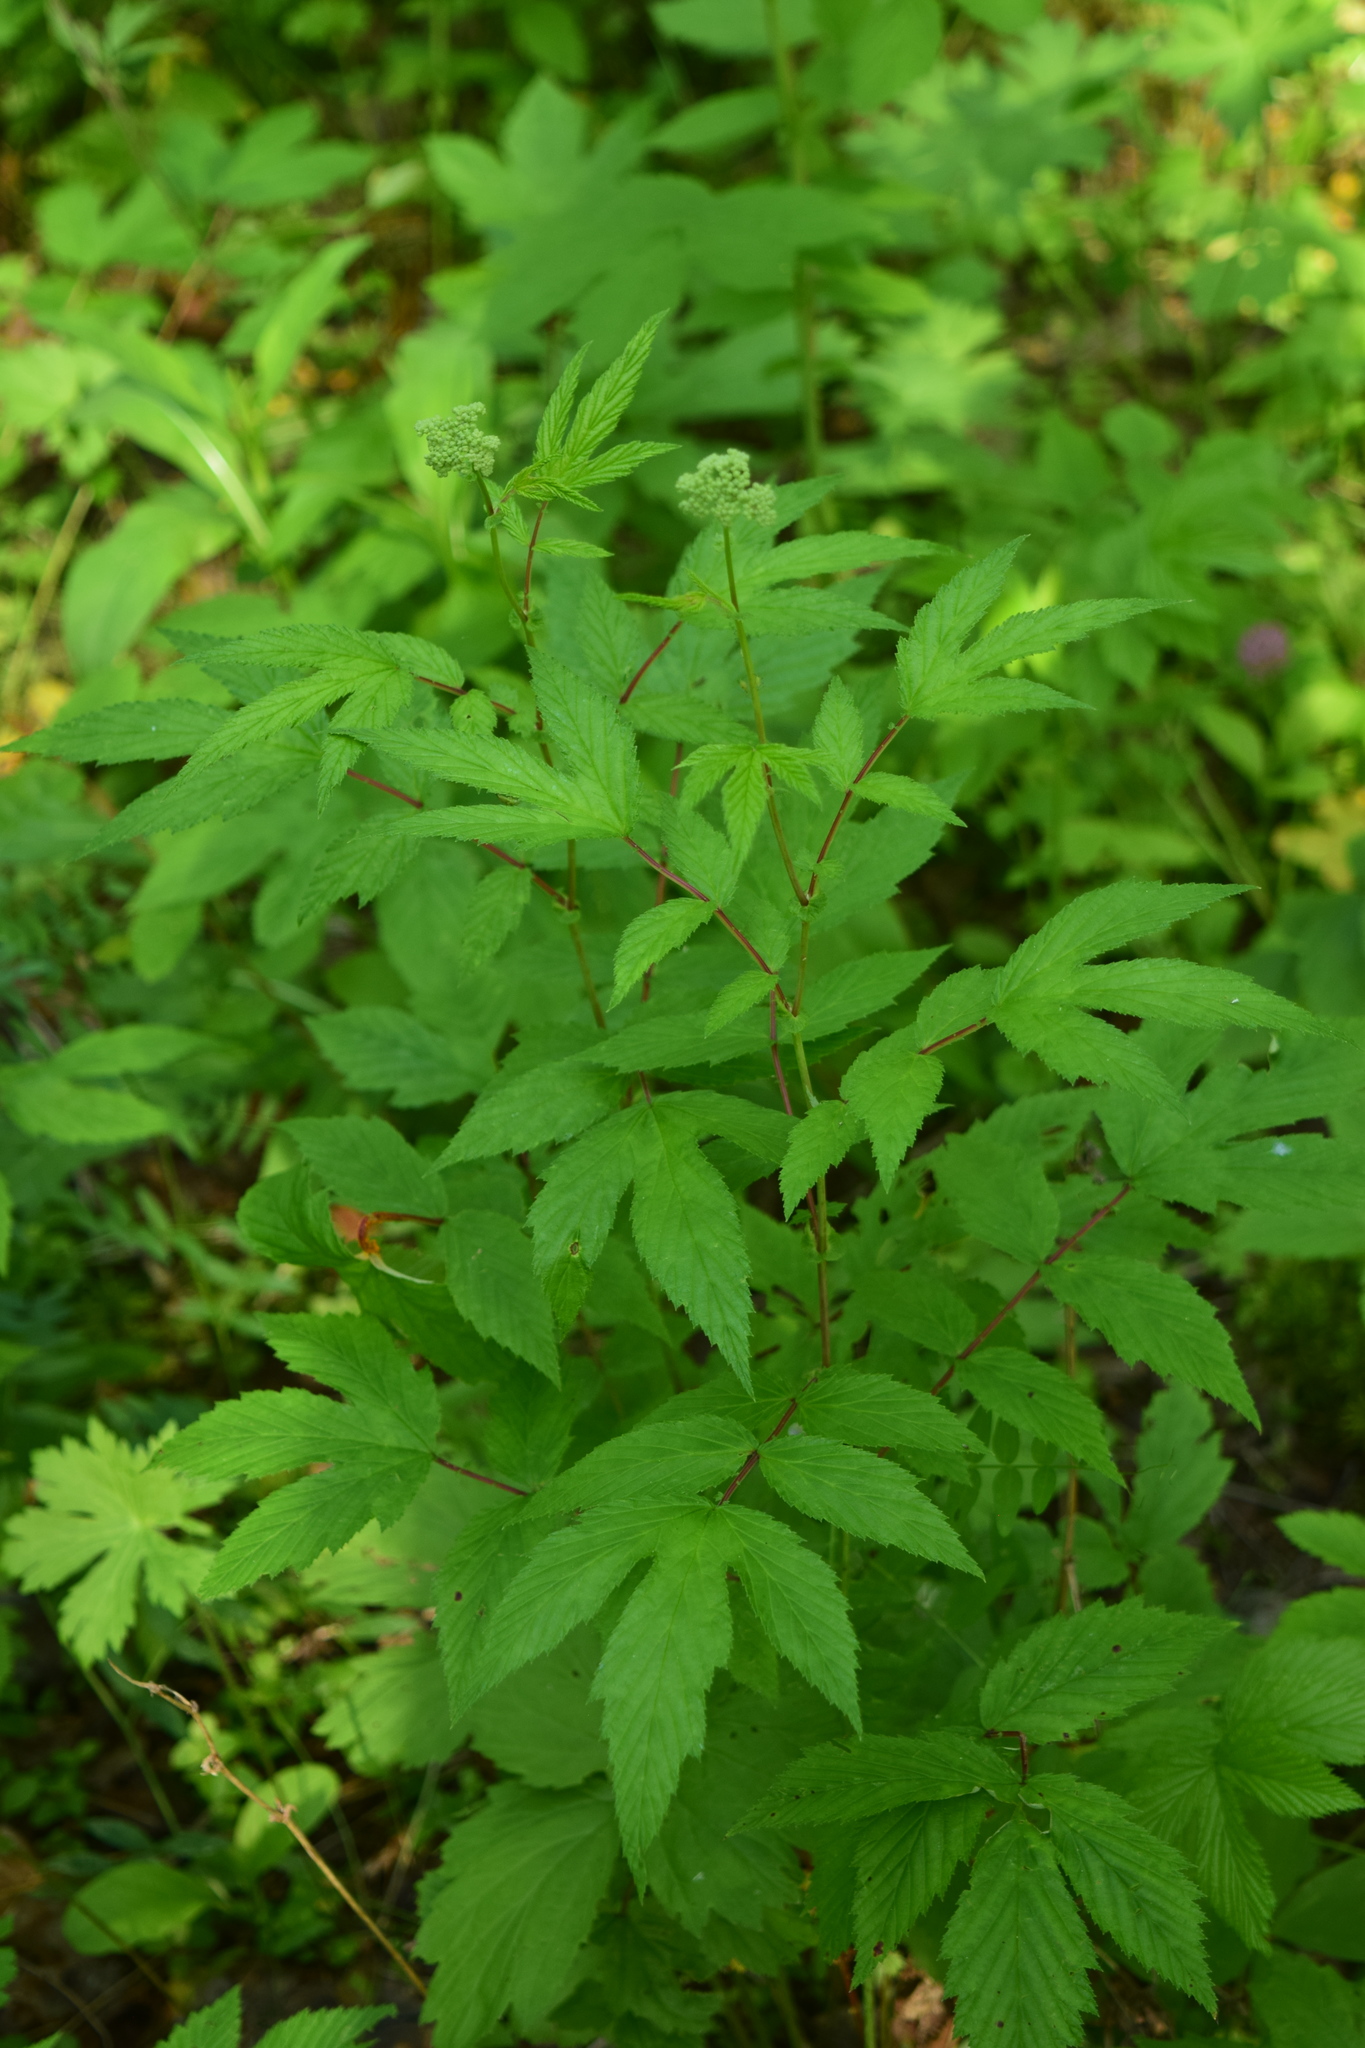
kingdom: Plantae
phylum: Tracheophyta
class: Magnoliopsida
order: Rosales
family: Rosaceae
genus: Filipendula
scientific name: Filipendula ulmaria
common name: Meadowsweet
